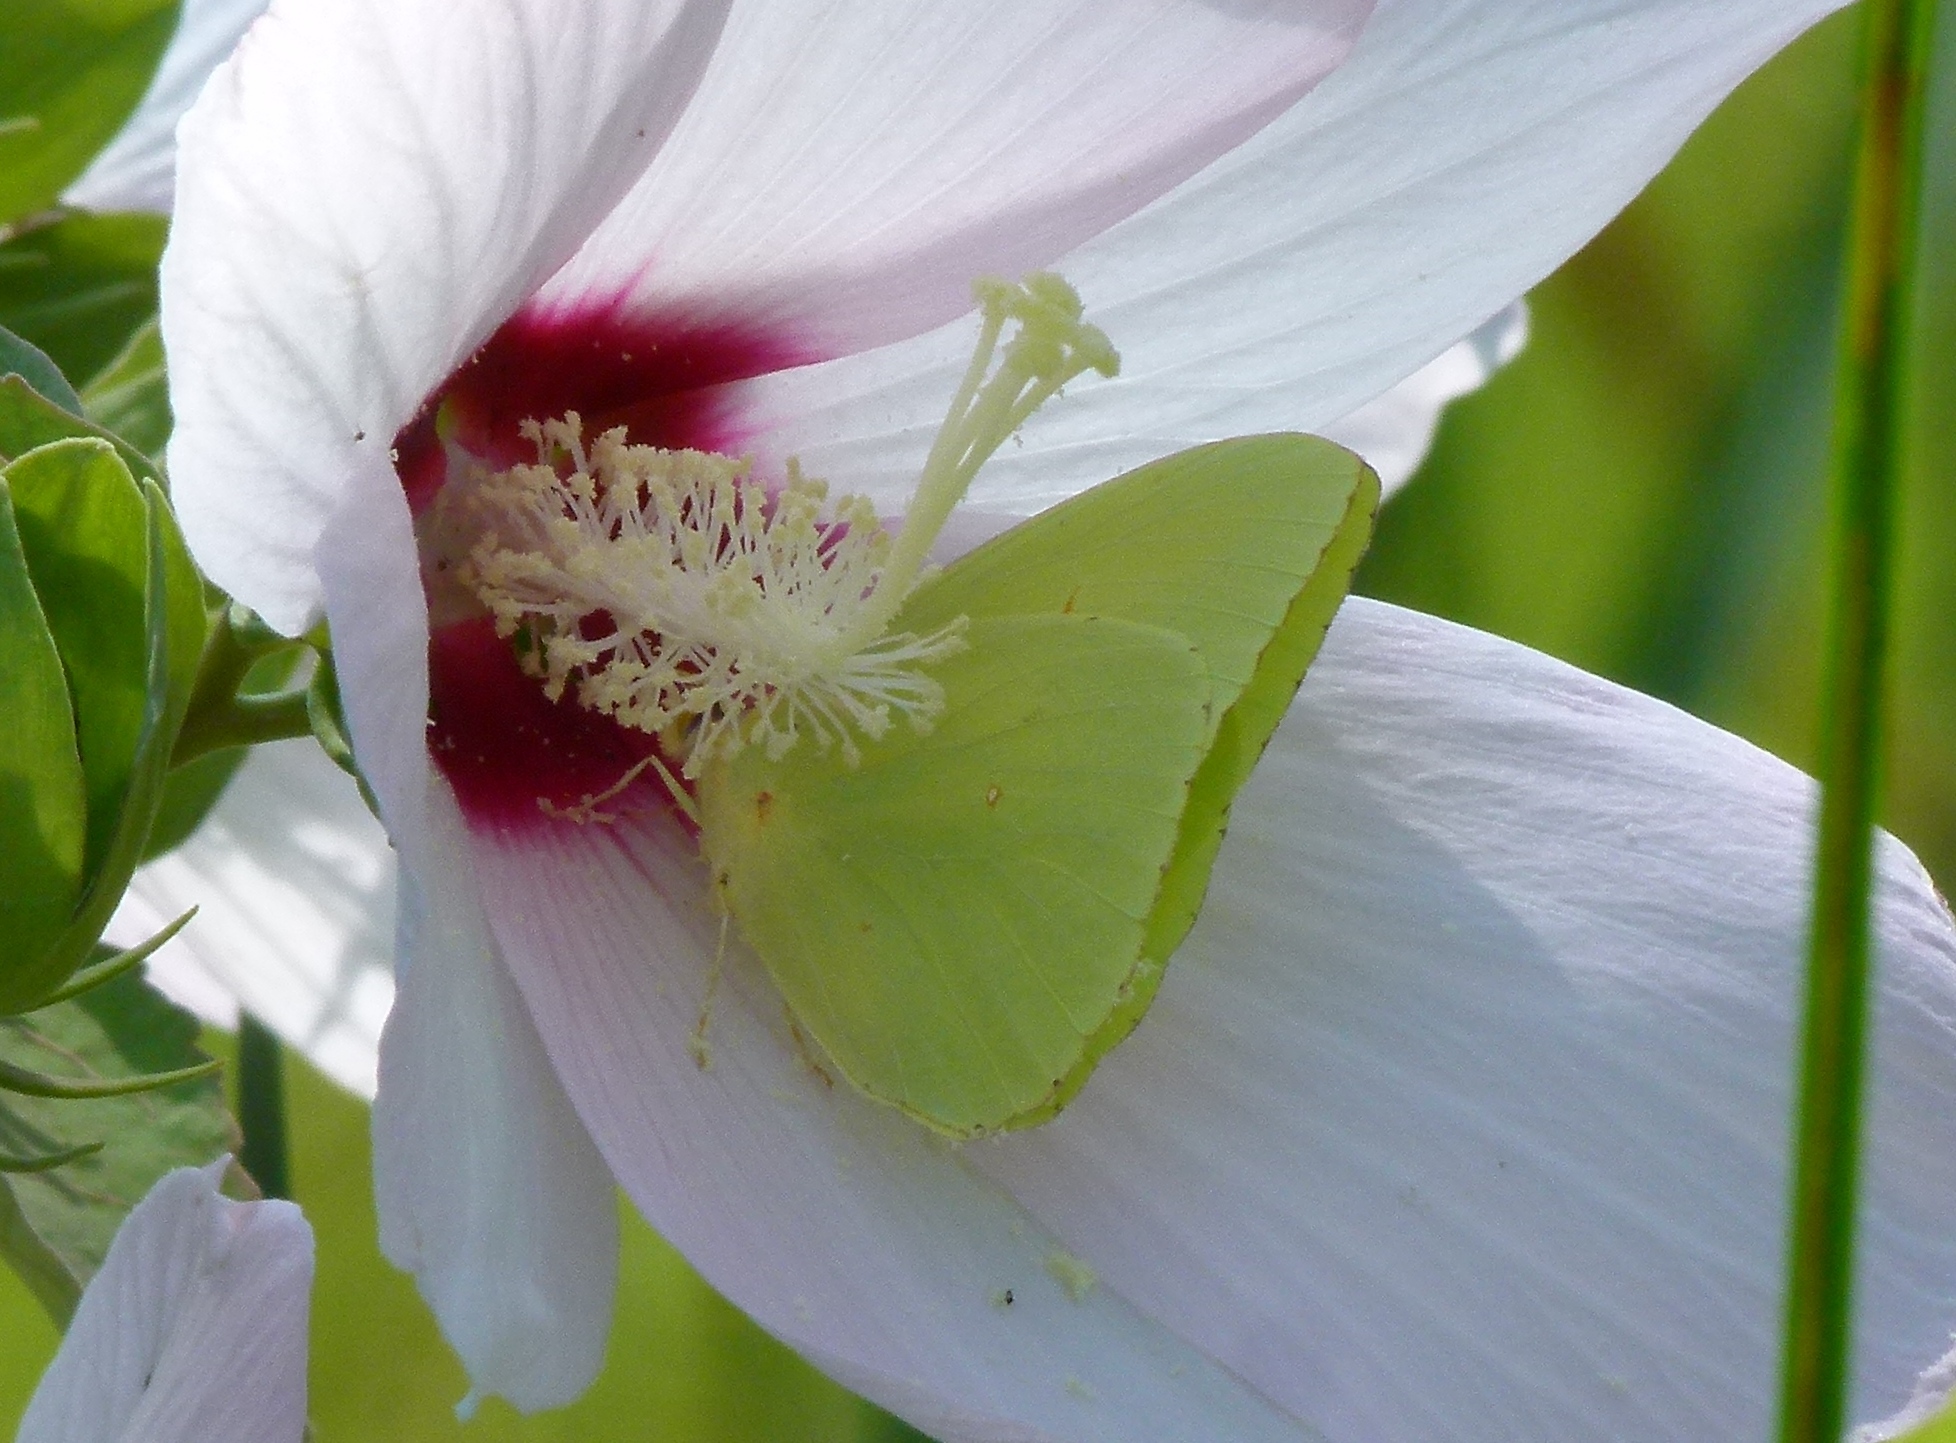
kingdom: Animalia
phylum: Arthropoda
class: Insecta
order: Lepidoptera
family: Pieridae
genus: Phoebis
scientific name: Phoebis sennae
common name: Cloudless sulphur
